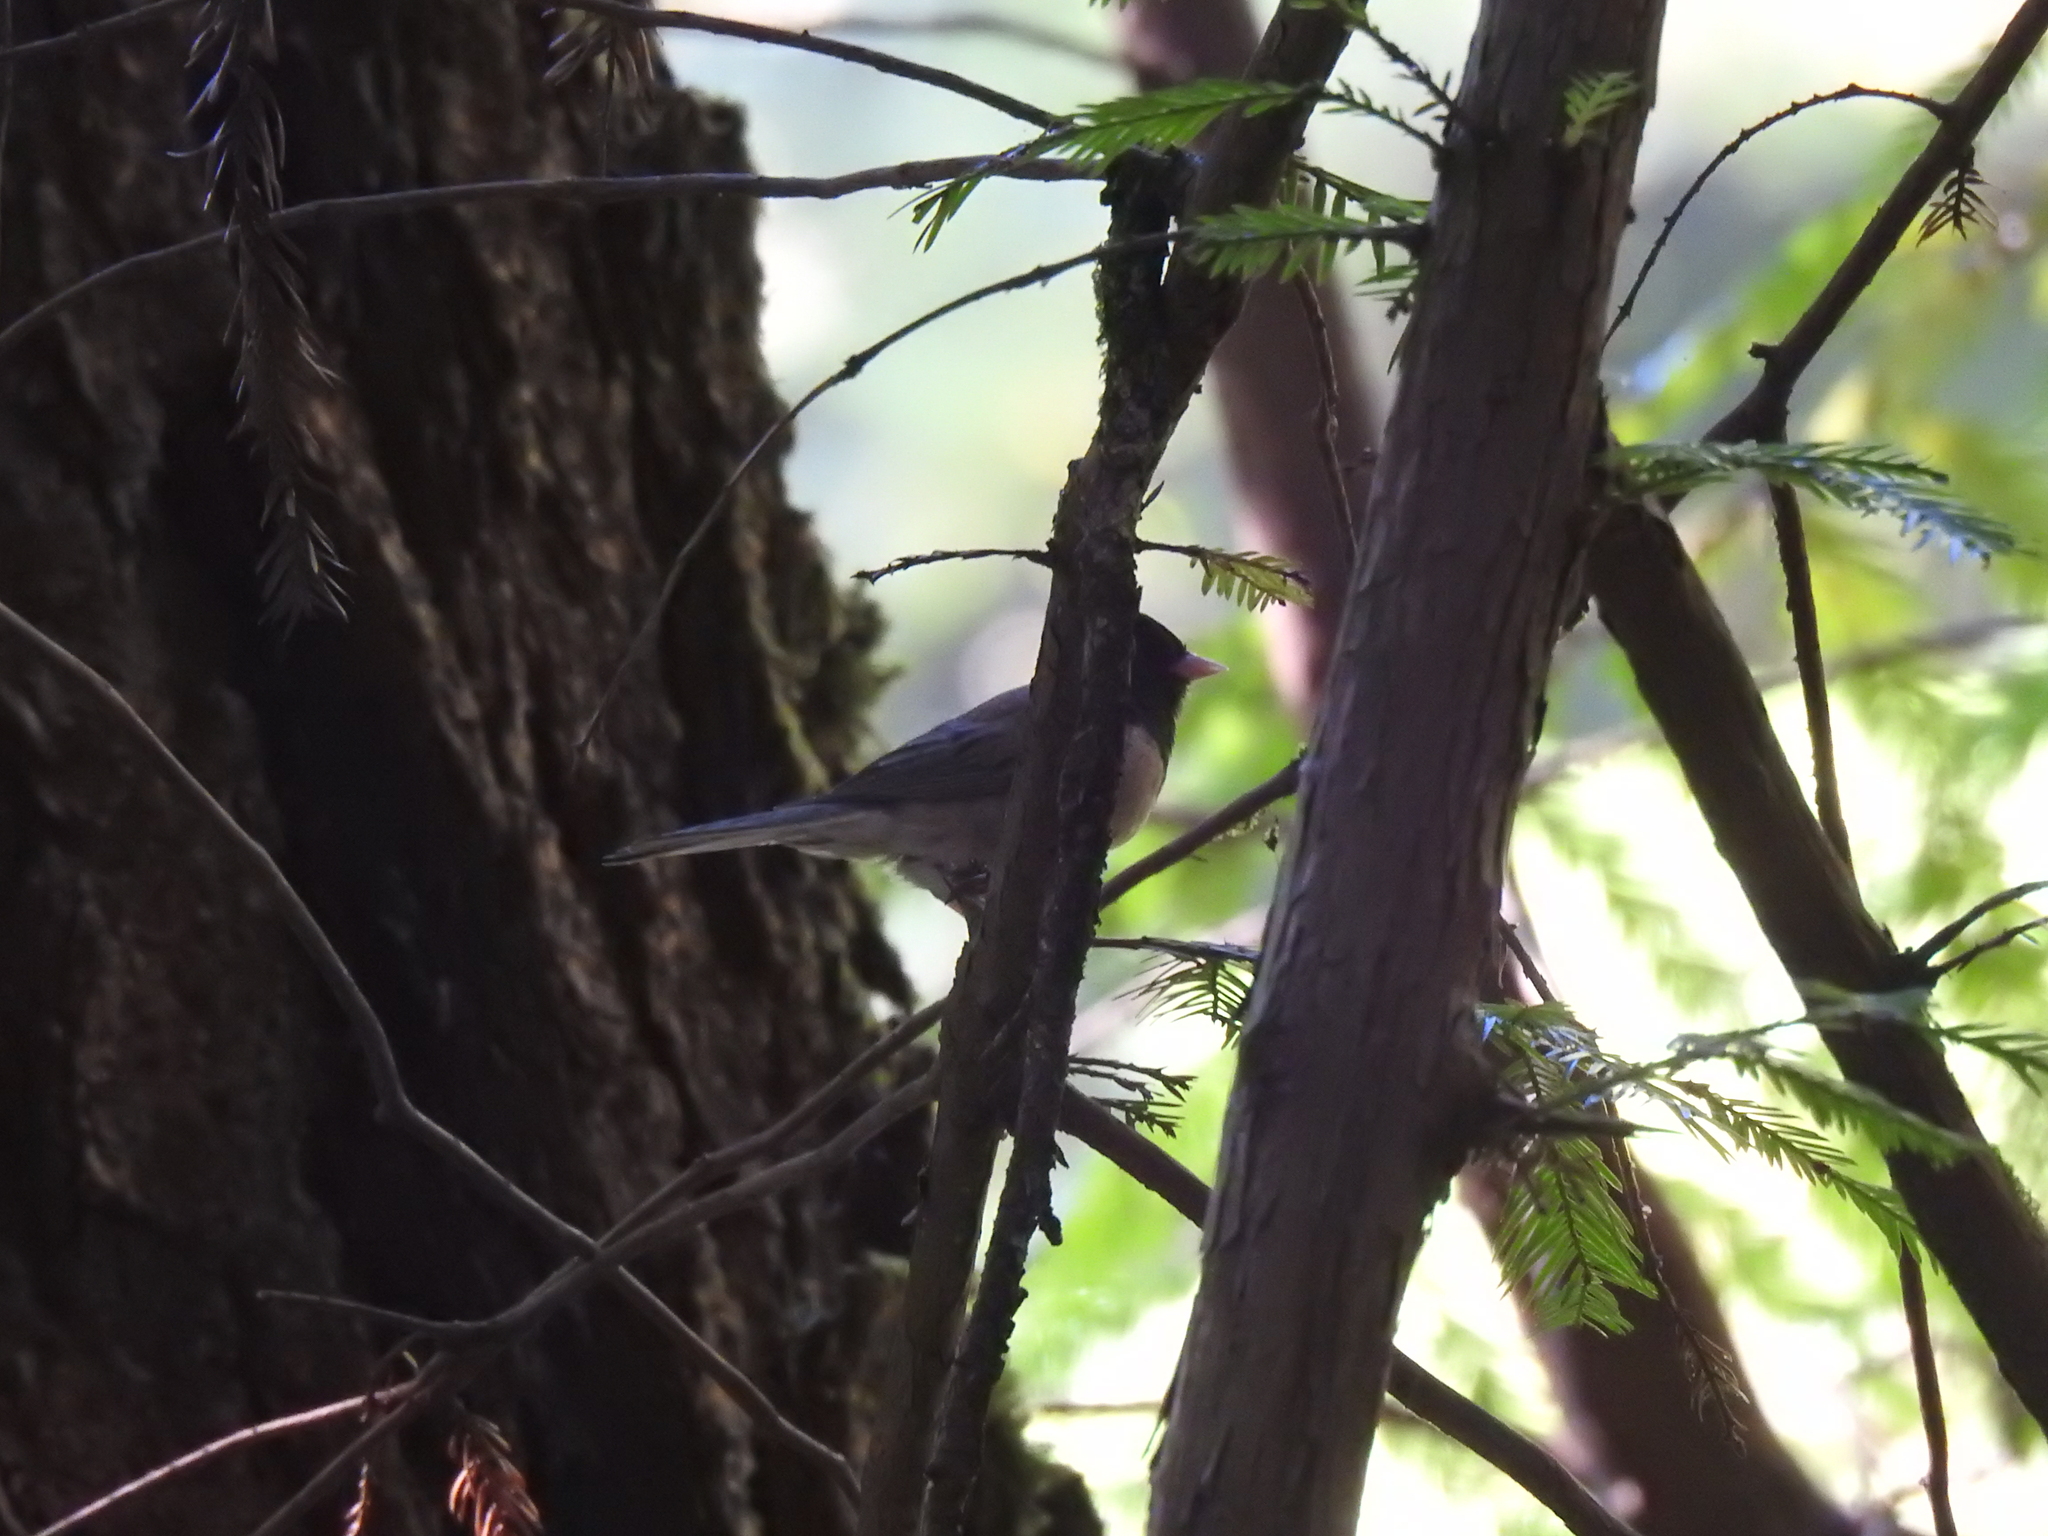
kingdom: Animalia
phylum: Chordata
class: Aves
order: Passeriformes
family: Passerellidae
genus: Junco
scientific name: Junco hyemalis
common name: Dark-eyed junco
